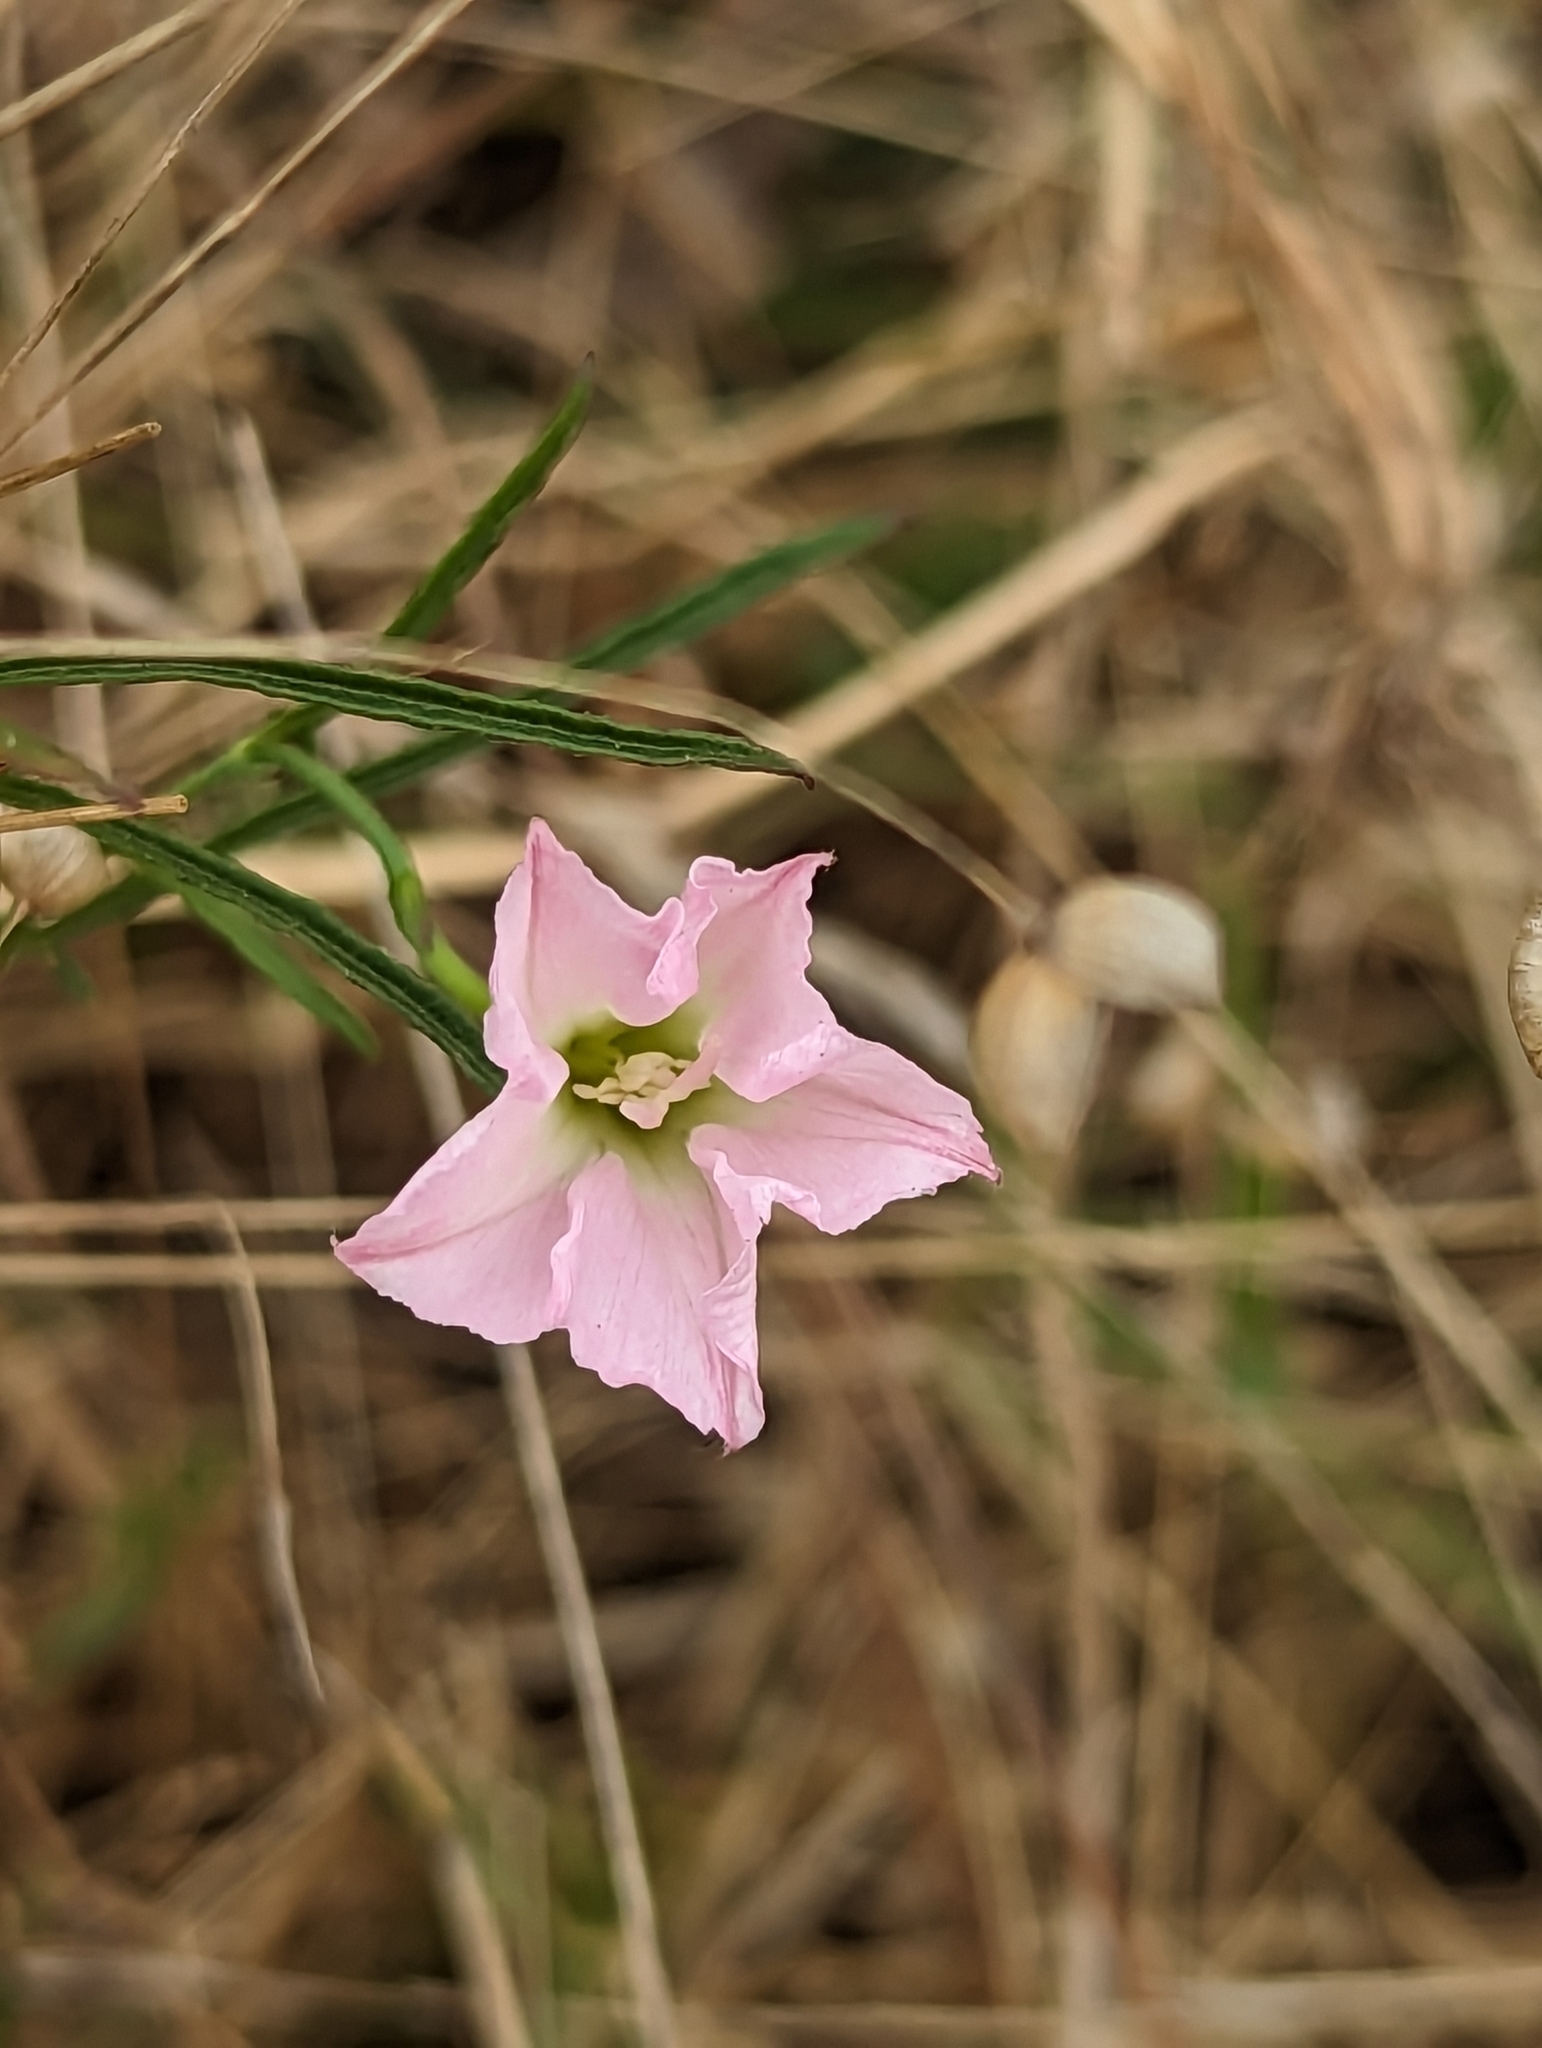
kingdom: Plantae
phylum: Tracheophyta
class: Magnoliopsida
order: Solanales
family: Convolvulaceae
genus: Convolvulus
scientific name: Convolvulus angustissimus
